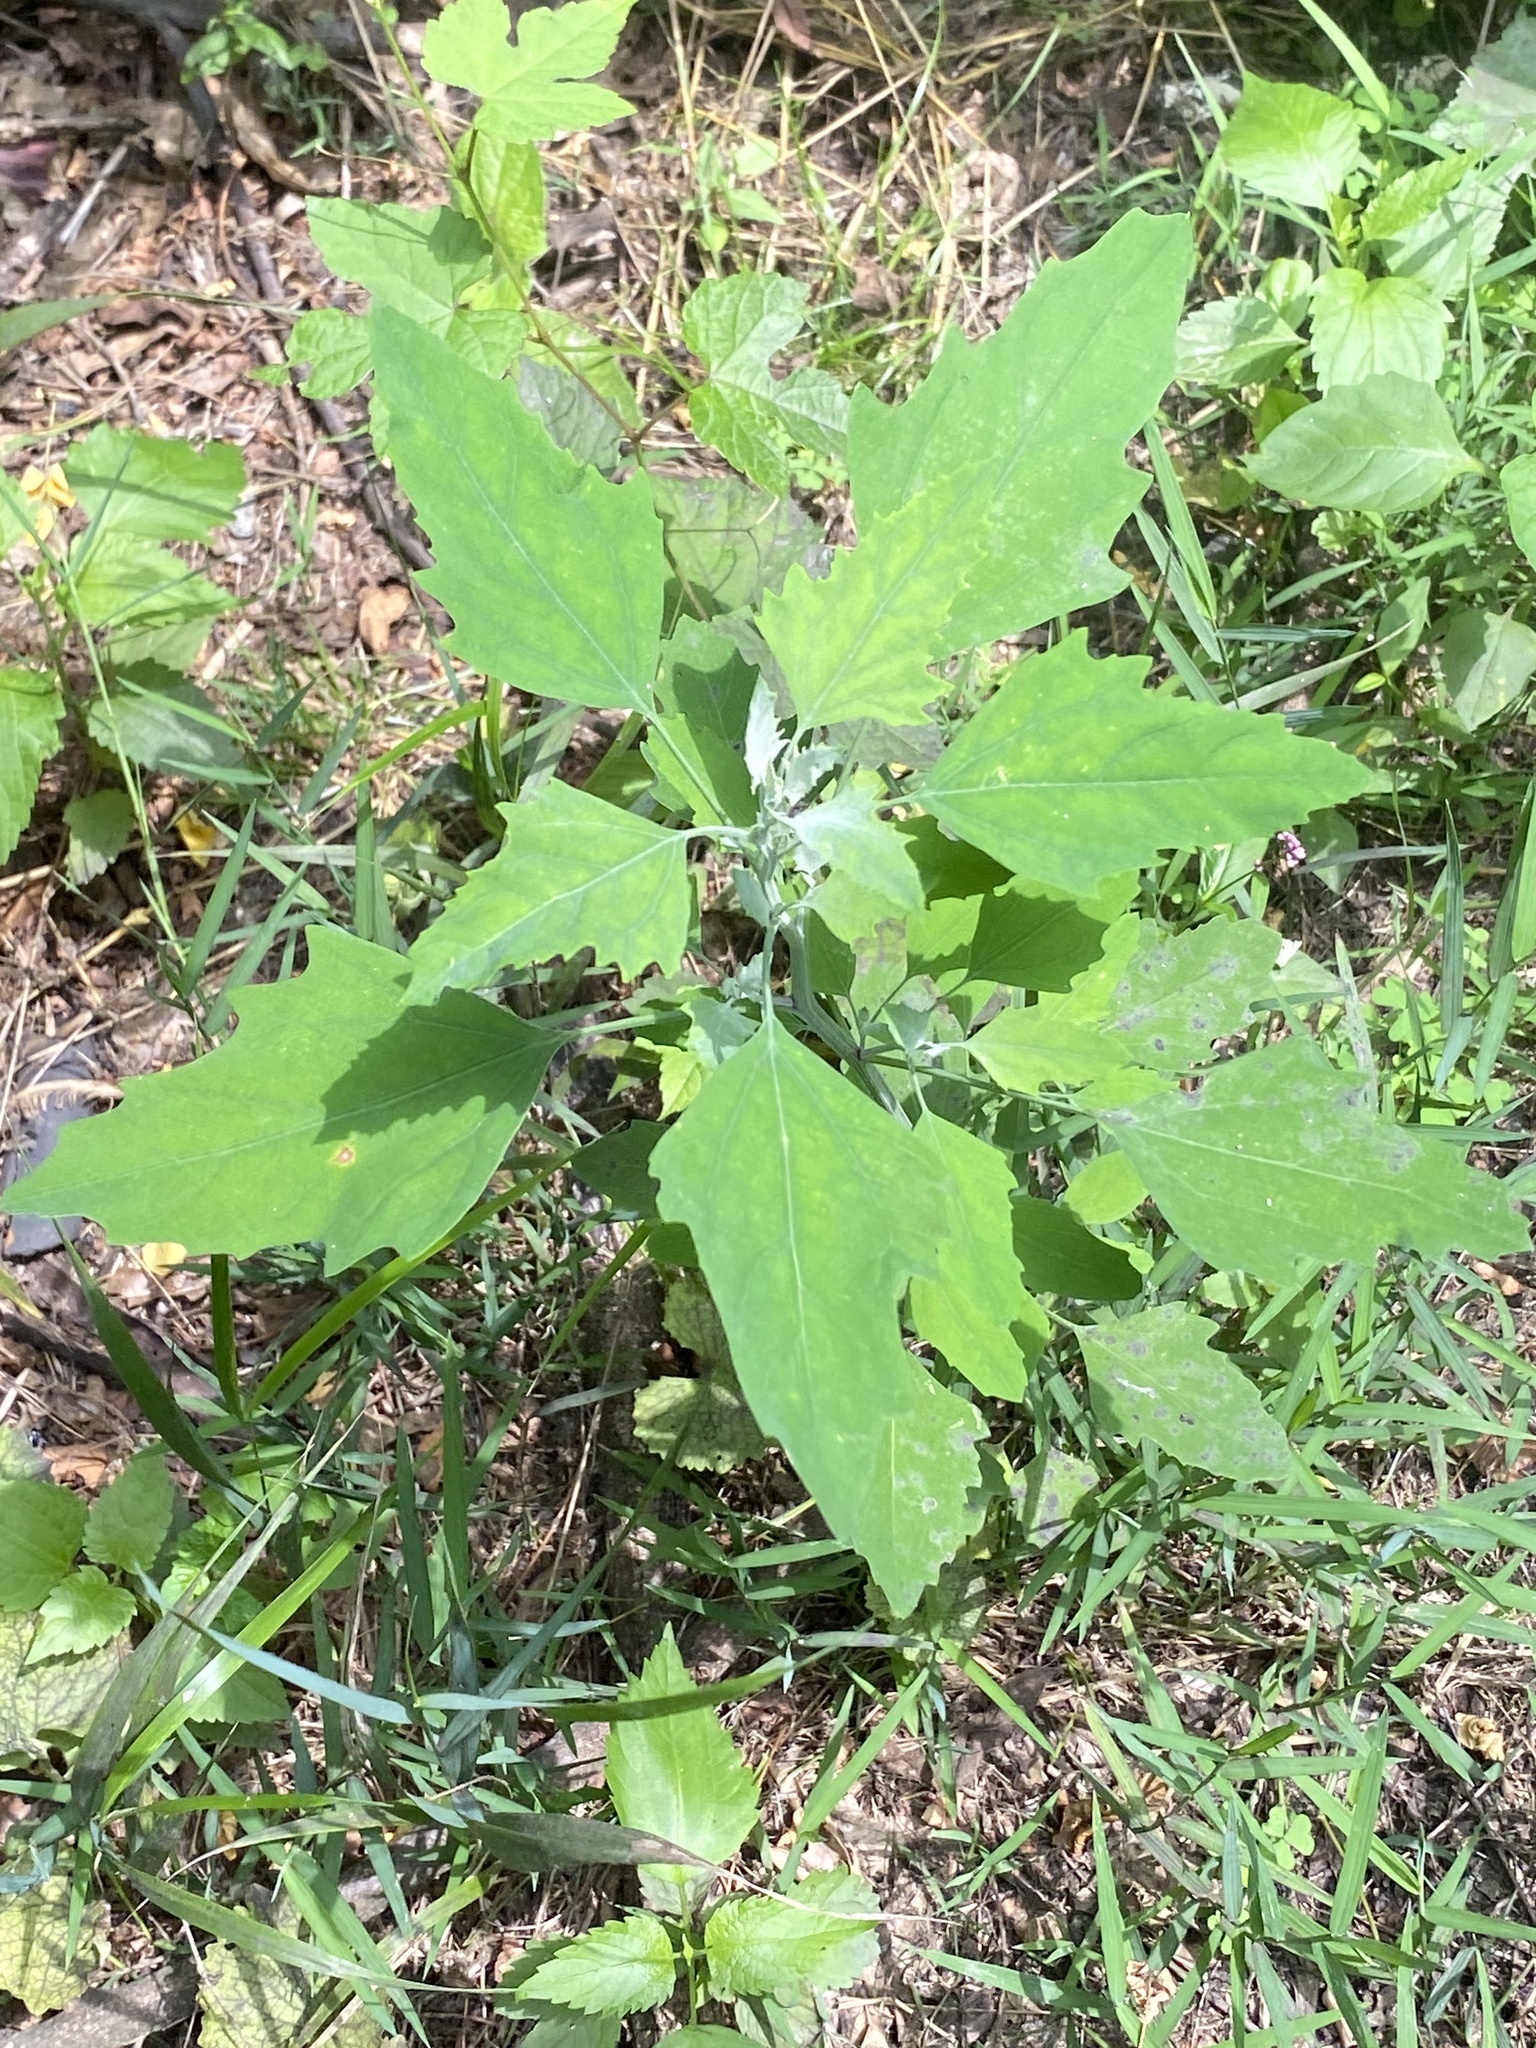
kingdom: Plantae
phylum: Tracheophyta
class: Magnoliopsida
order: Caryophyllales
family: Amaranthaceae
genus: Chenopodium
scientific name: Chenopodium album
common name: Fat-hen
